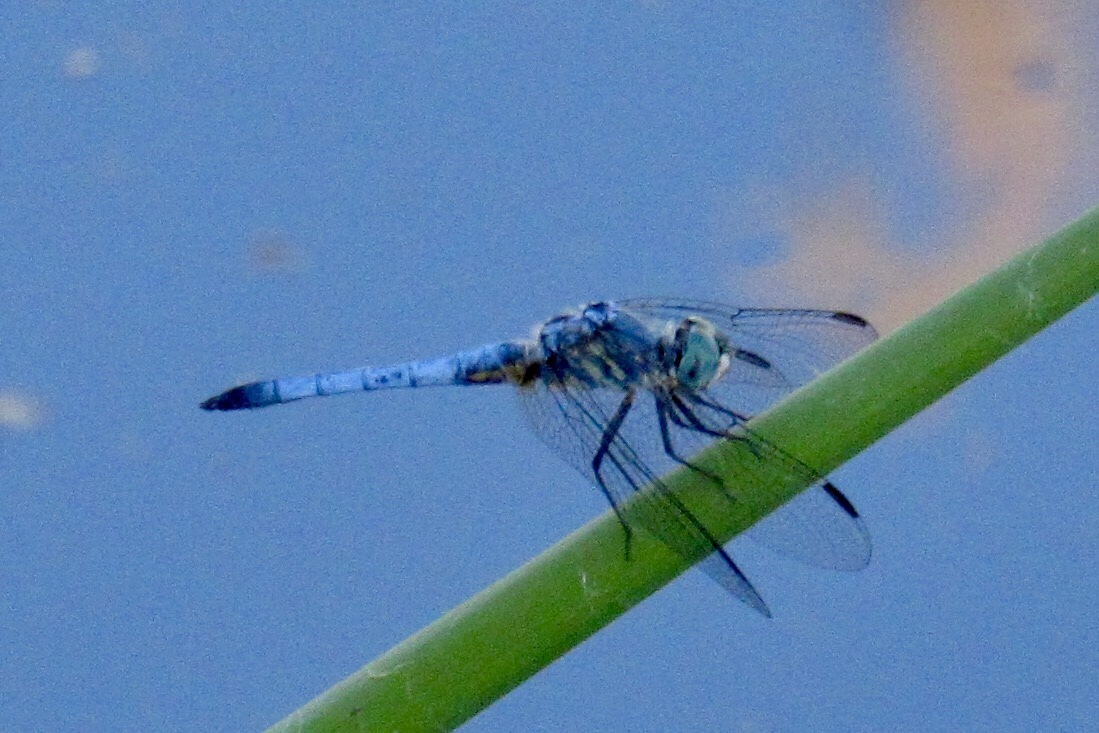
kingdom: Animalia
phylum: Arthropoda
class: Insecta
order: Odonata
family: Libellulidae
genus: Pachydiplax
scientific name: Pachydiplax longipennis
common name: Blue dasher
